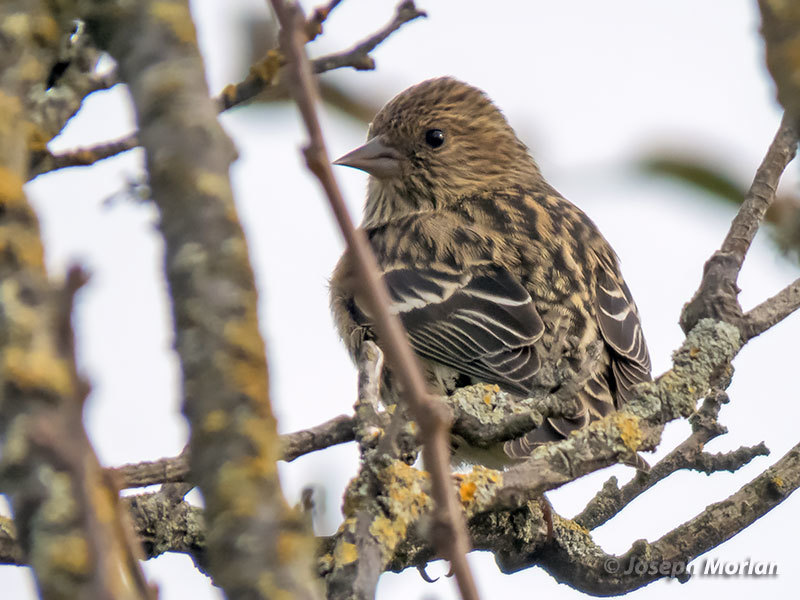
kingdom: Animalia
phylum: Chordata
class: Aves
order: Passeriformes
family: Fringillidae
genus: Spinus
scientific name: Spinus pinus
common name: Pine siskin
